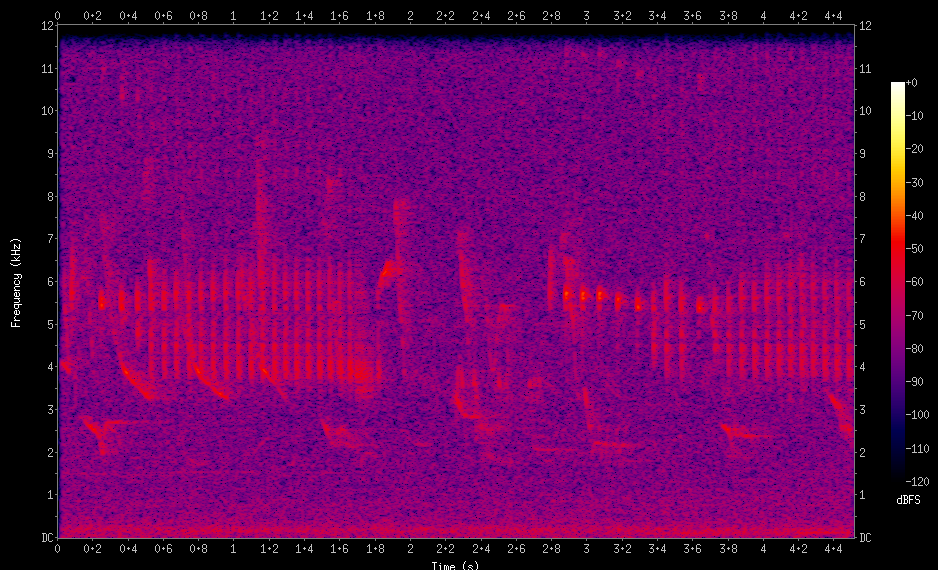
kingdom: Animalia
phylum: Chordata
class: Aves
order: Passeriformes
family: Tyrannidae
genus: Tyrannus
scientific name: Tyrannus savana
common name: Fork-tailed flycatcher
